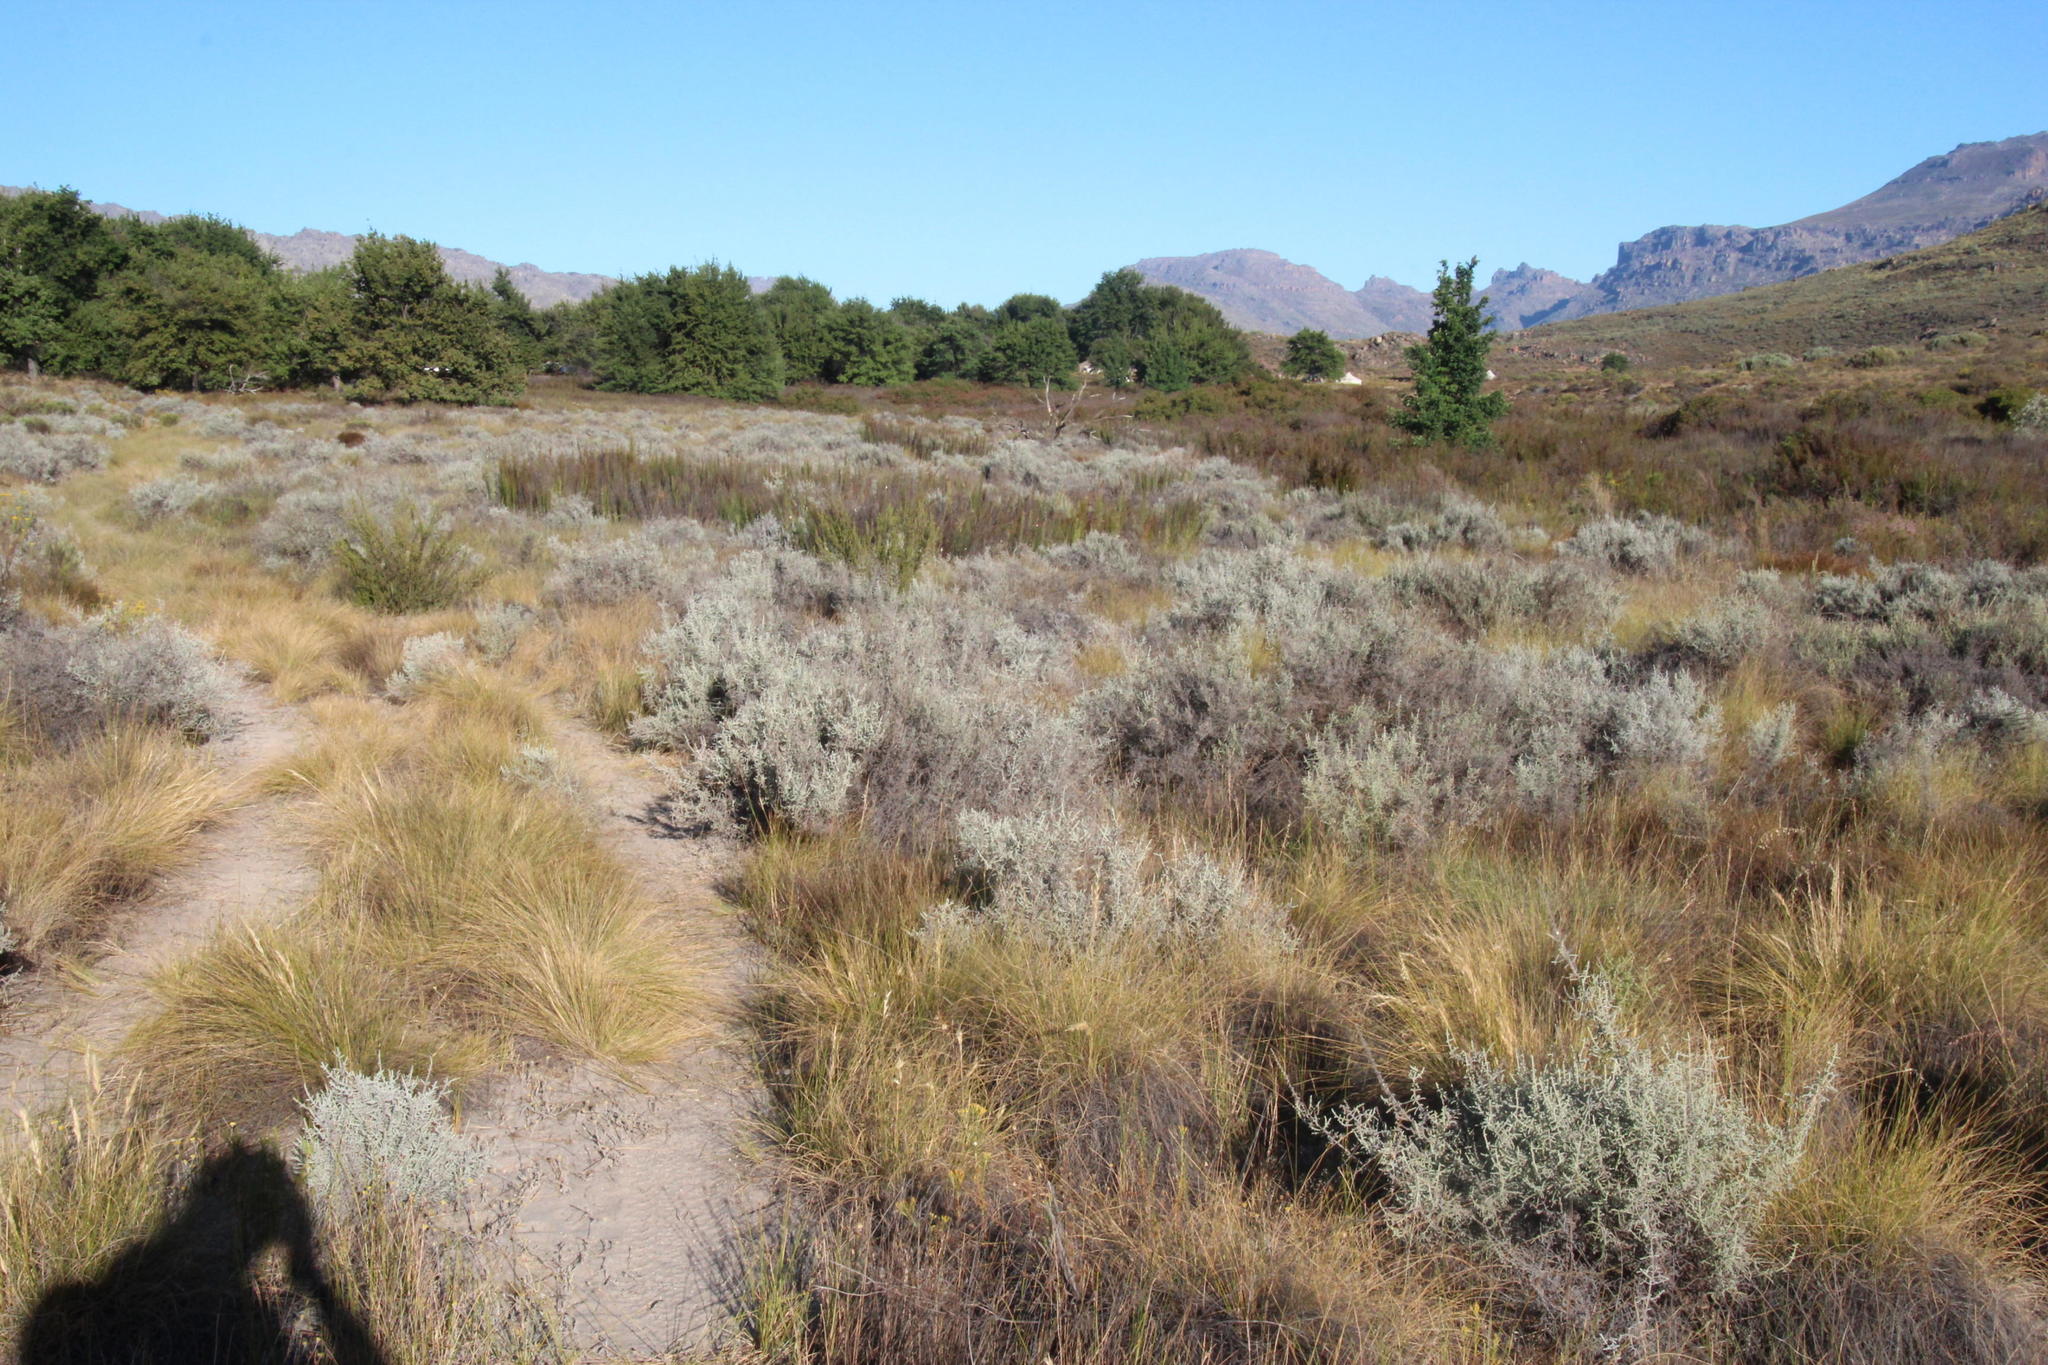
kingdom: Plantae
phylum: Tracheophyta
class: Magnoliopsida
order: Asterales
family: Asteraceae
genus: Seriphium
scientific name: Seriphium plumosum
